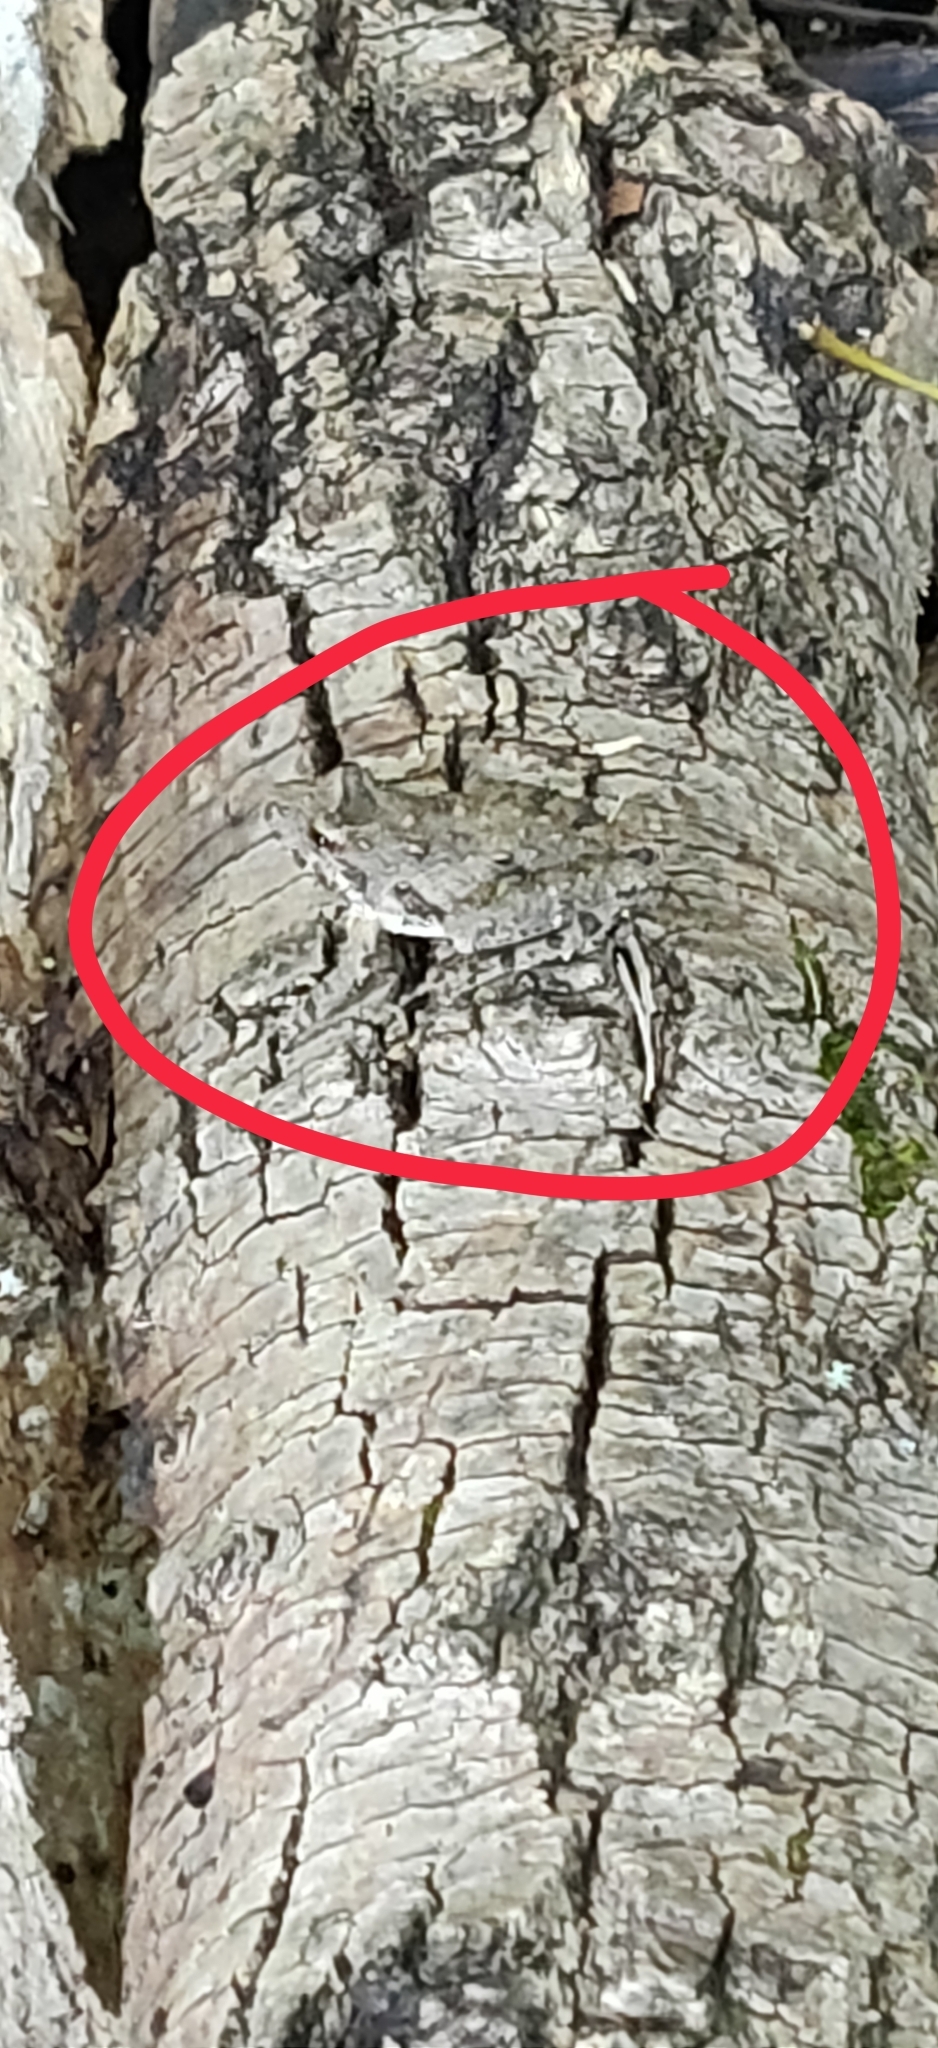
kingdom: Animalia
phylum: Chordata
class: Amphibia
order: Anura
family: Hylidae
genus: Acris
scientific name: Acris blanchardi
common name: Blanchard's cricket frog
